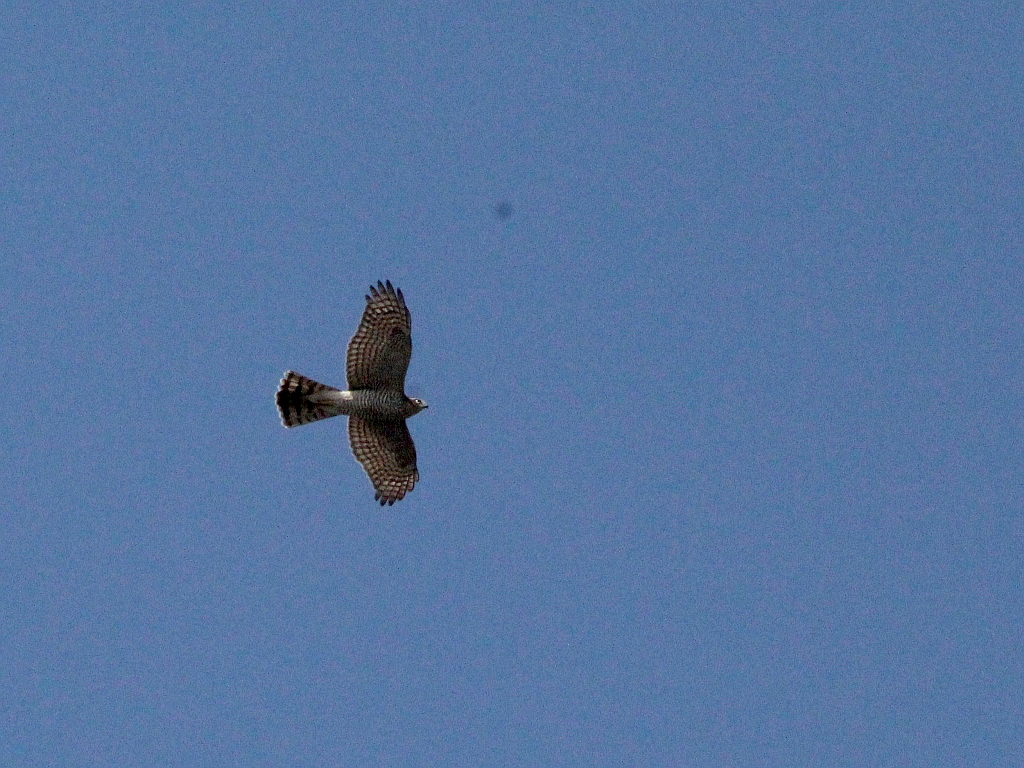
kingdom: Animalia
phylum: Chordata
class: Aves
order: Accipitriformes
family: Accipitridae
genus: Accipiter
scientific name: Accipiter nisus
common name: Eurasian sparrowhawk
